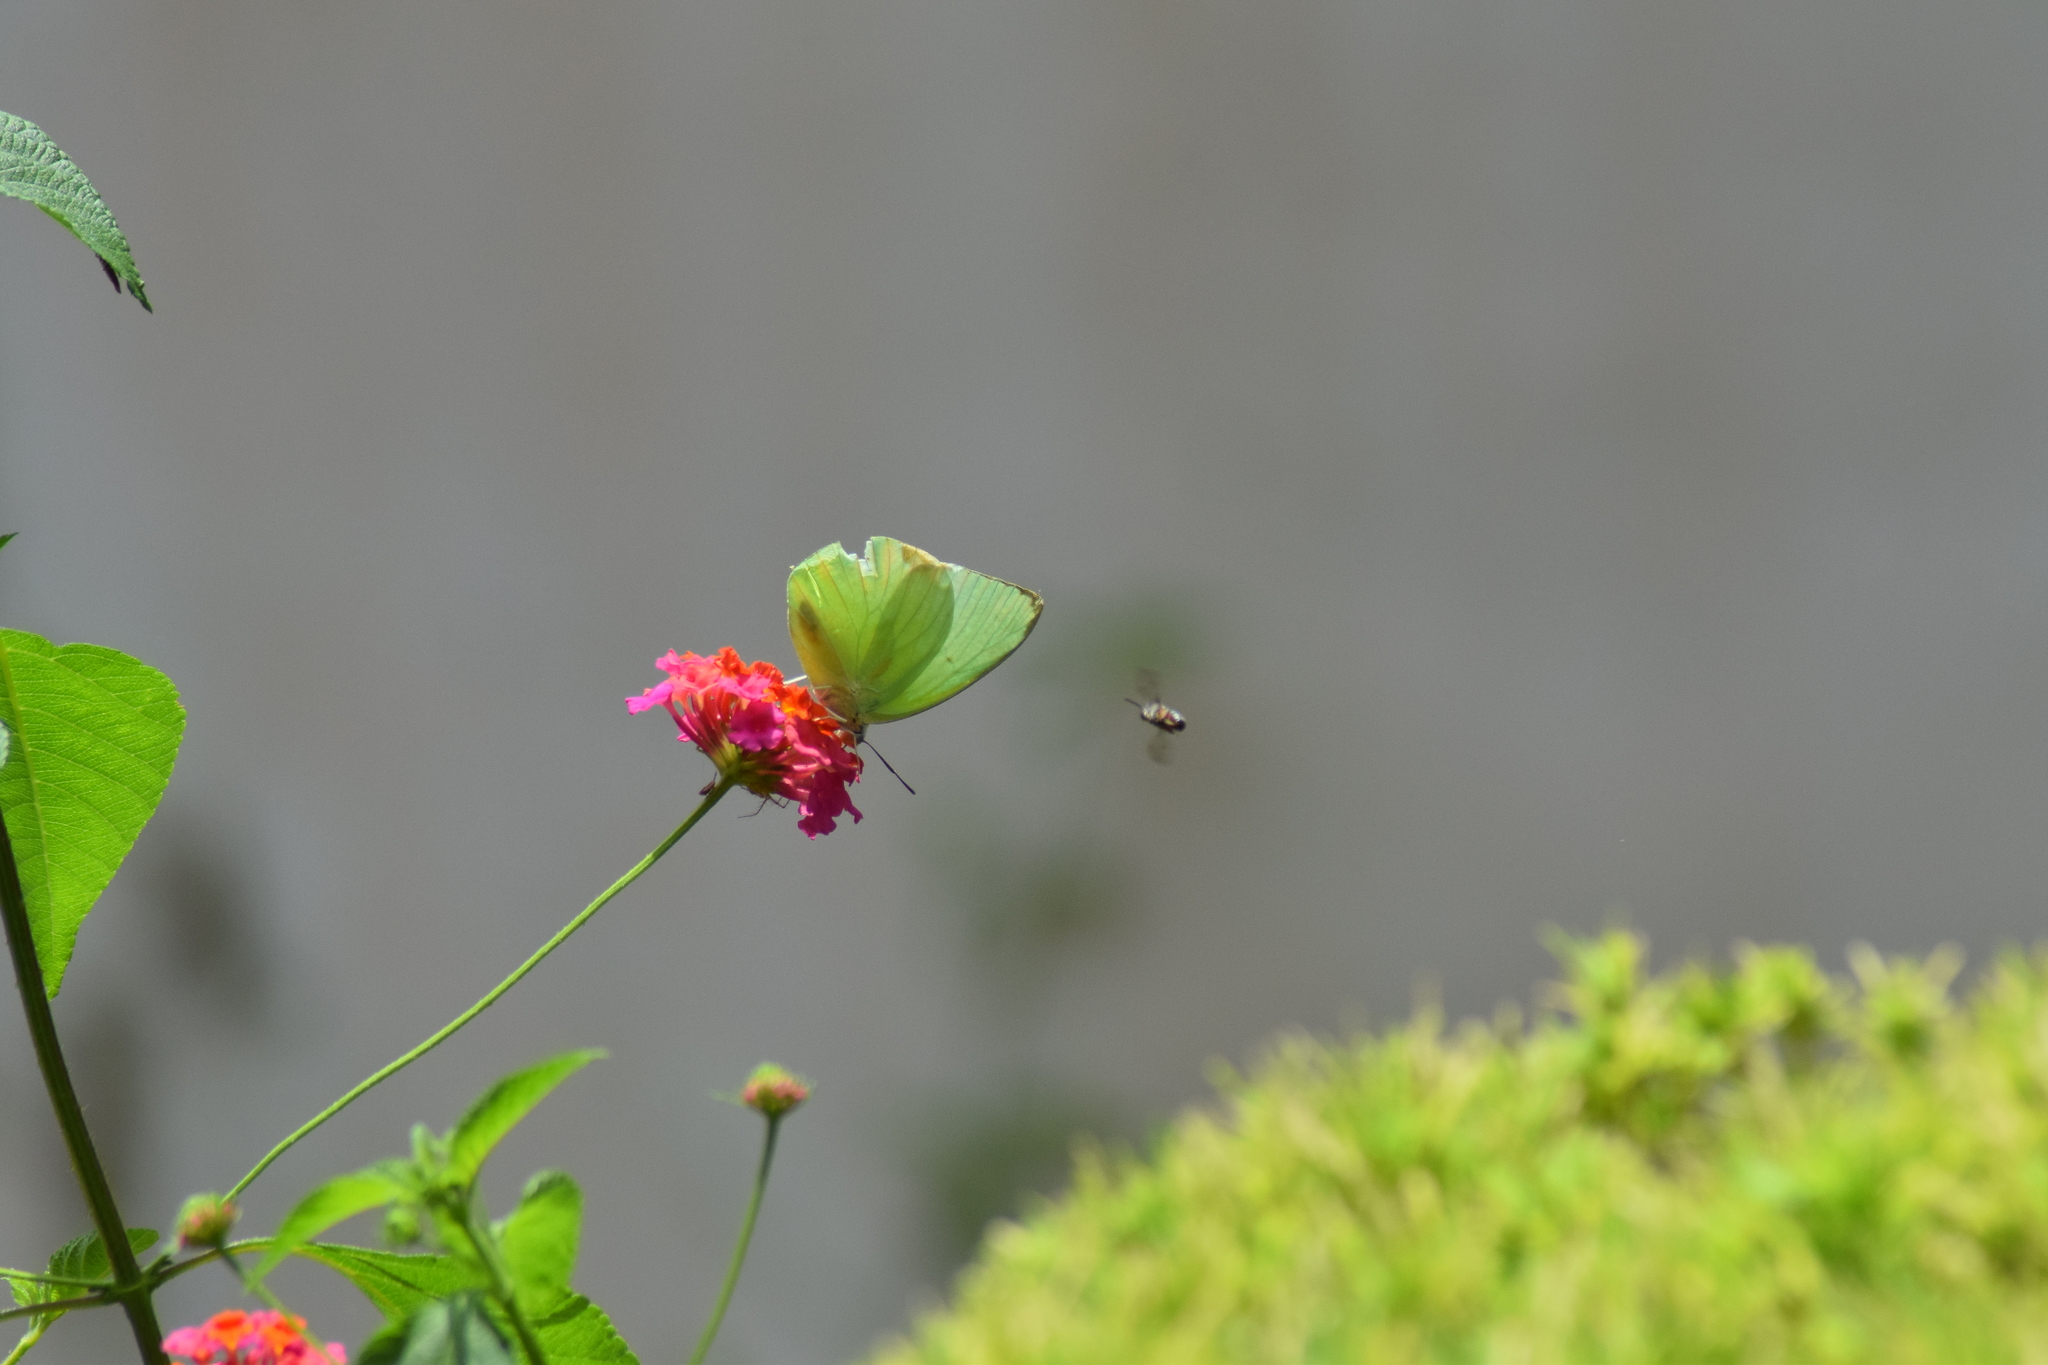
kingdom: Animalia
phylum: Arthropoda
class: Insecta
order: Lepidoptera
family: Pieridae
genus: Catopsilia
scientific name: Catopsilia pomona
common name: Common emigrant
